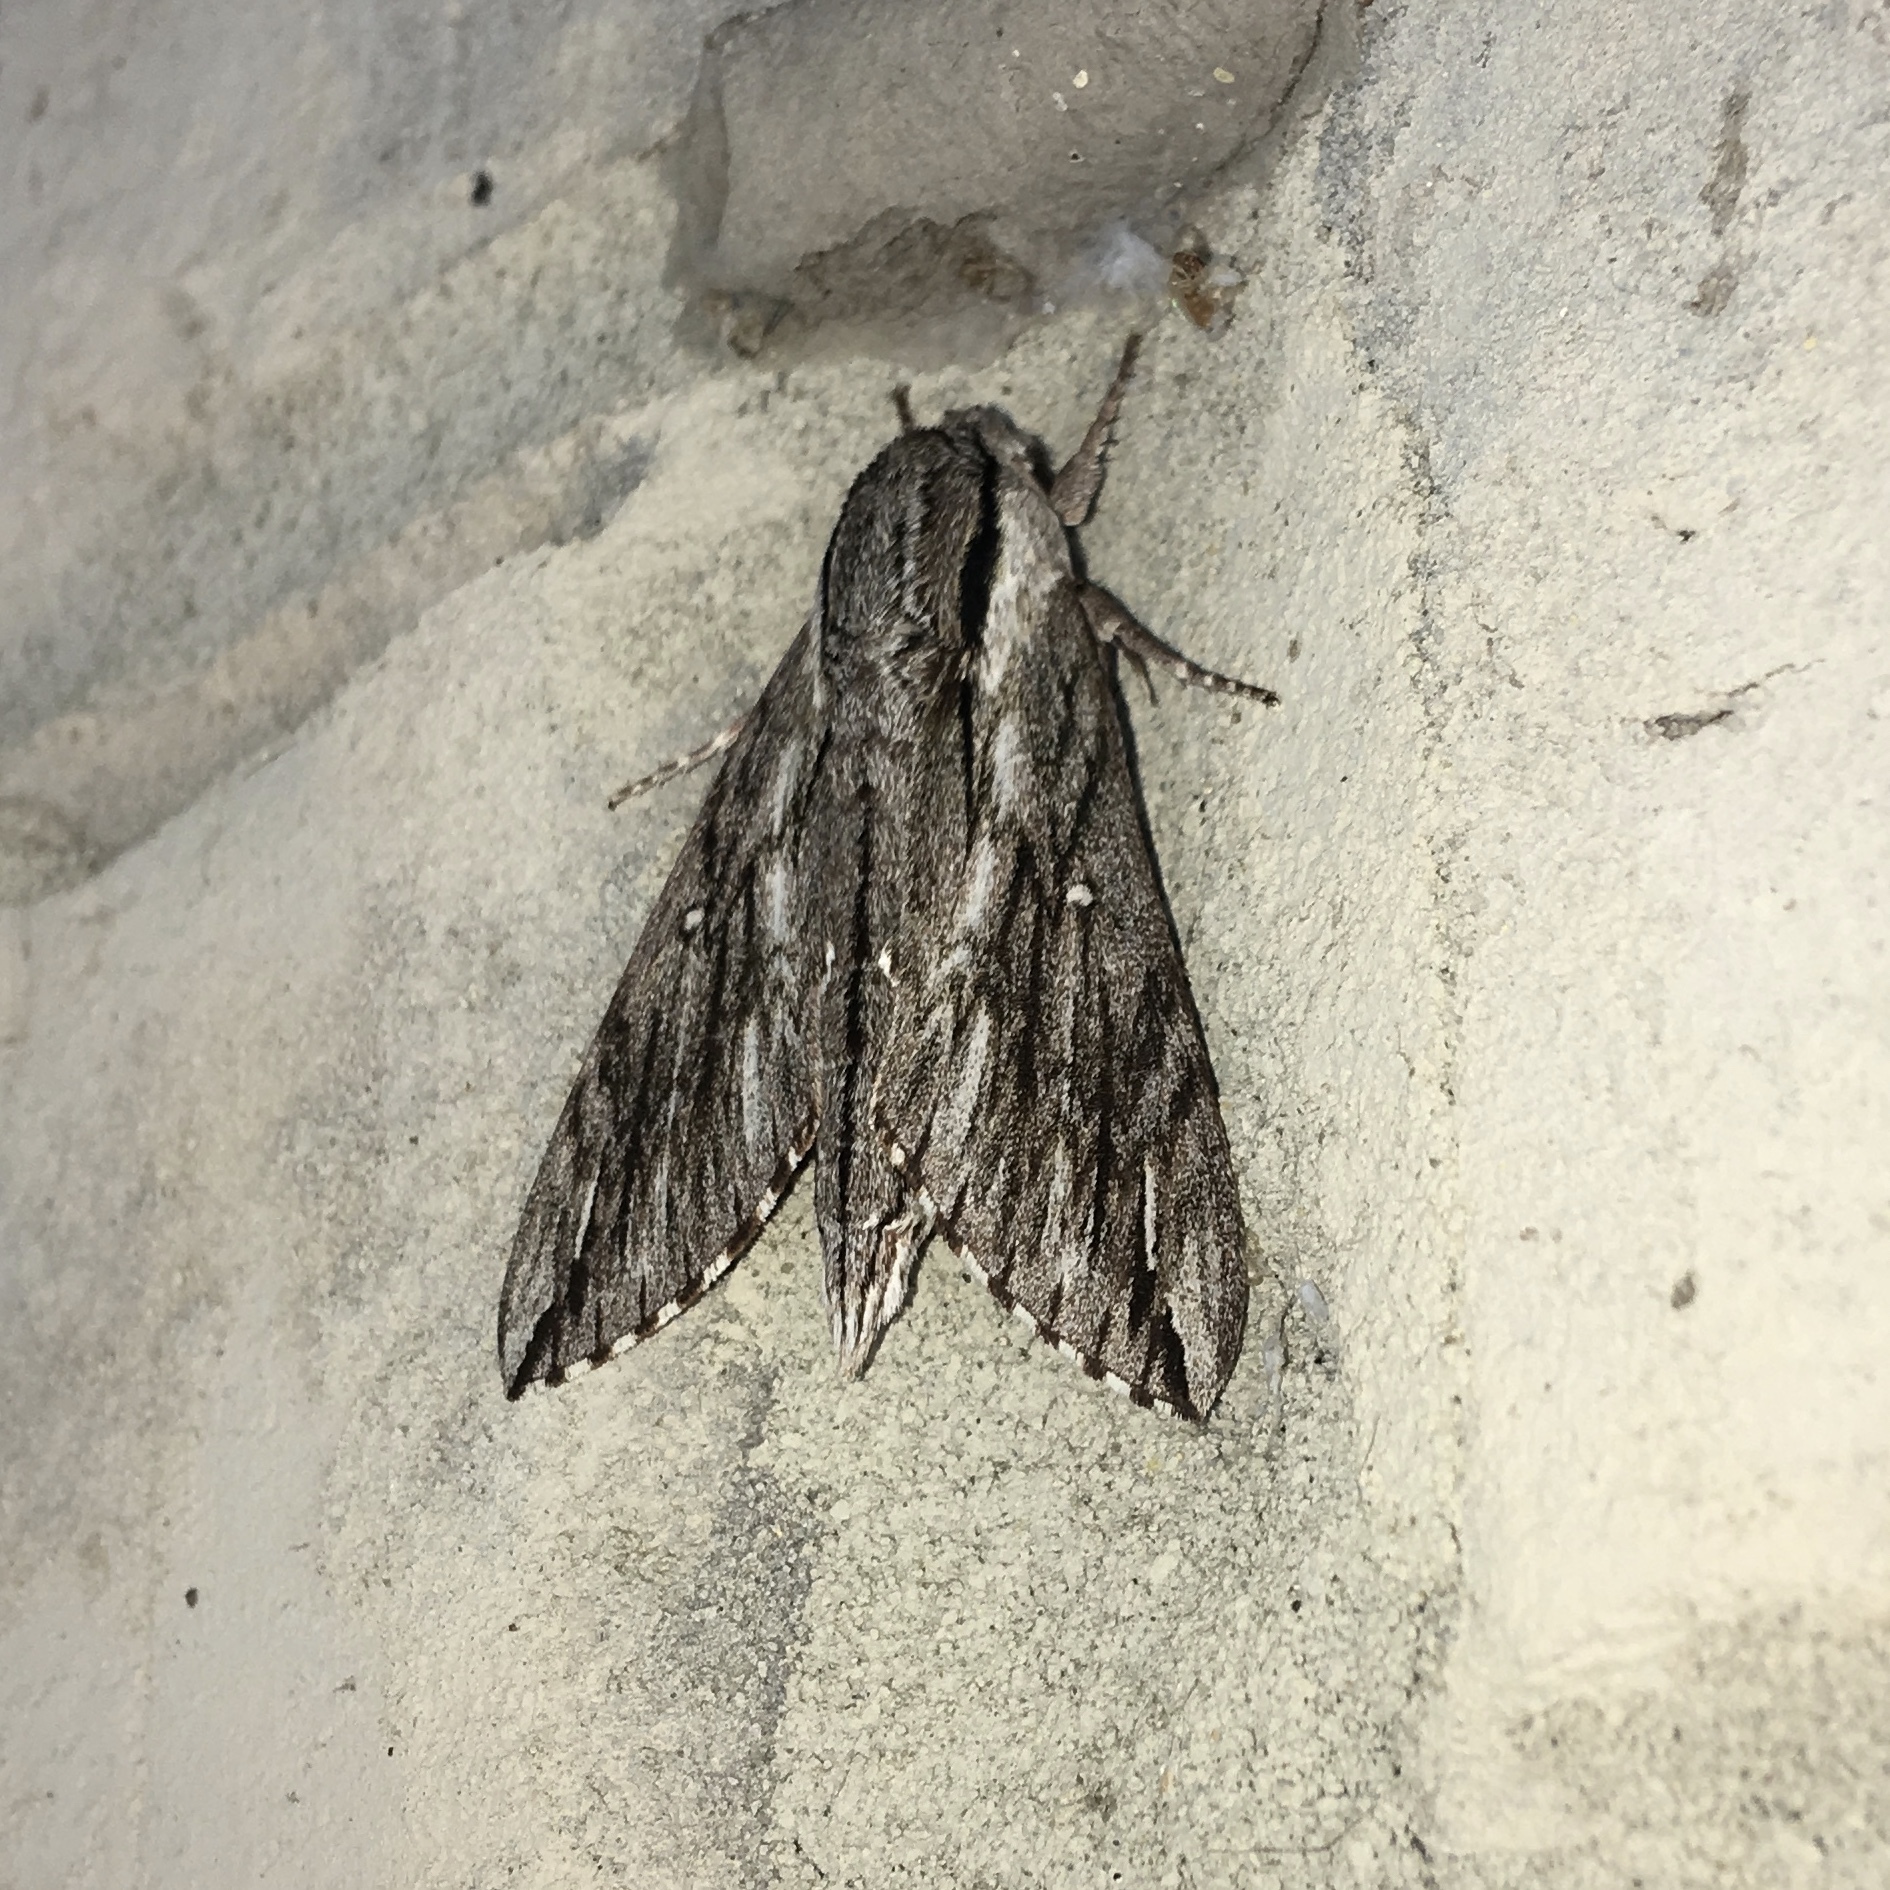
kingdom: Animalia
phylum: Arthropoda
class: Insecta
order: Lepidoptera
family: Sphingidae
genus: Paratrea
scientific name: Paratrea plebeja
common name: Plebian sphinx
